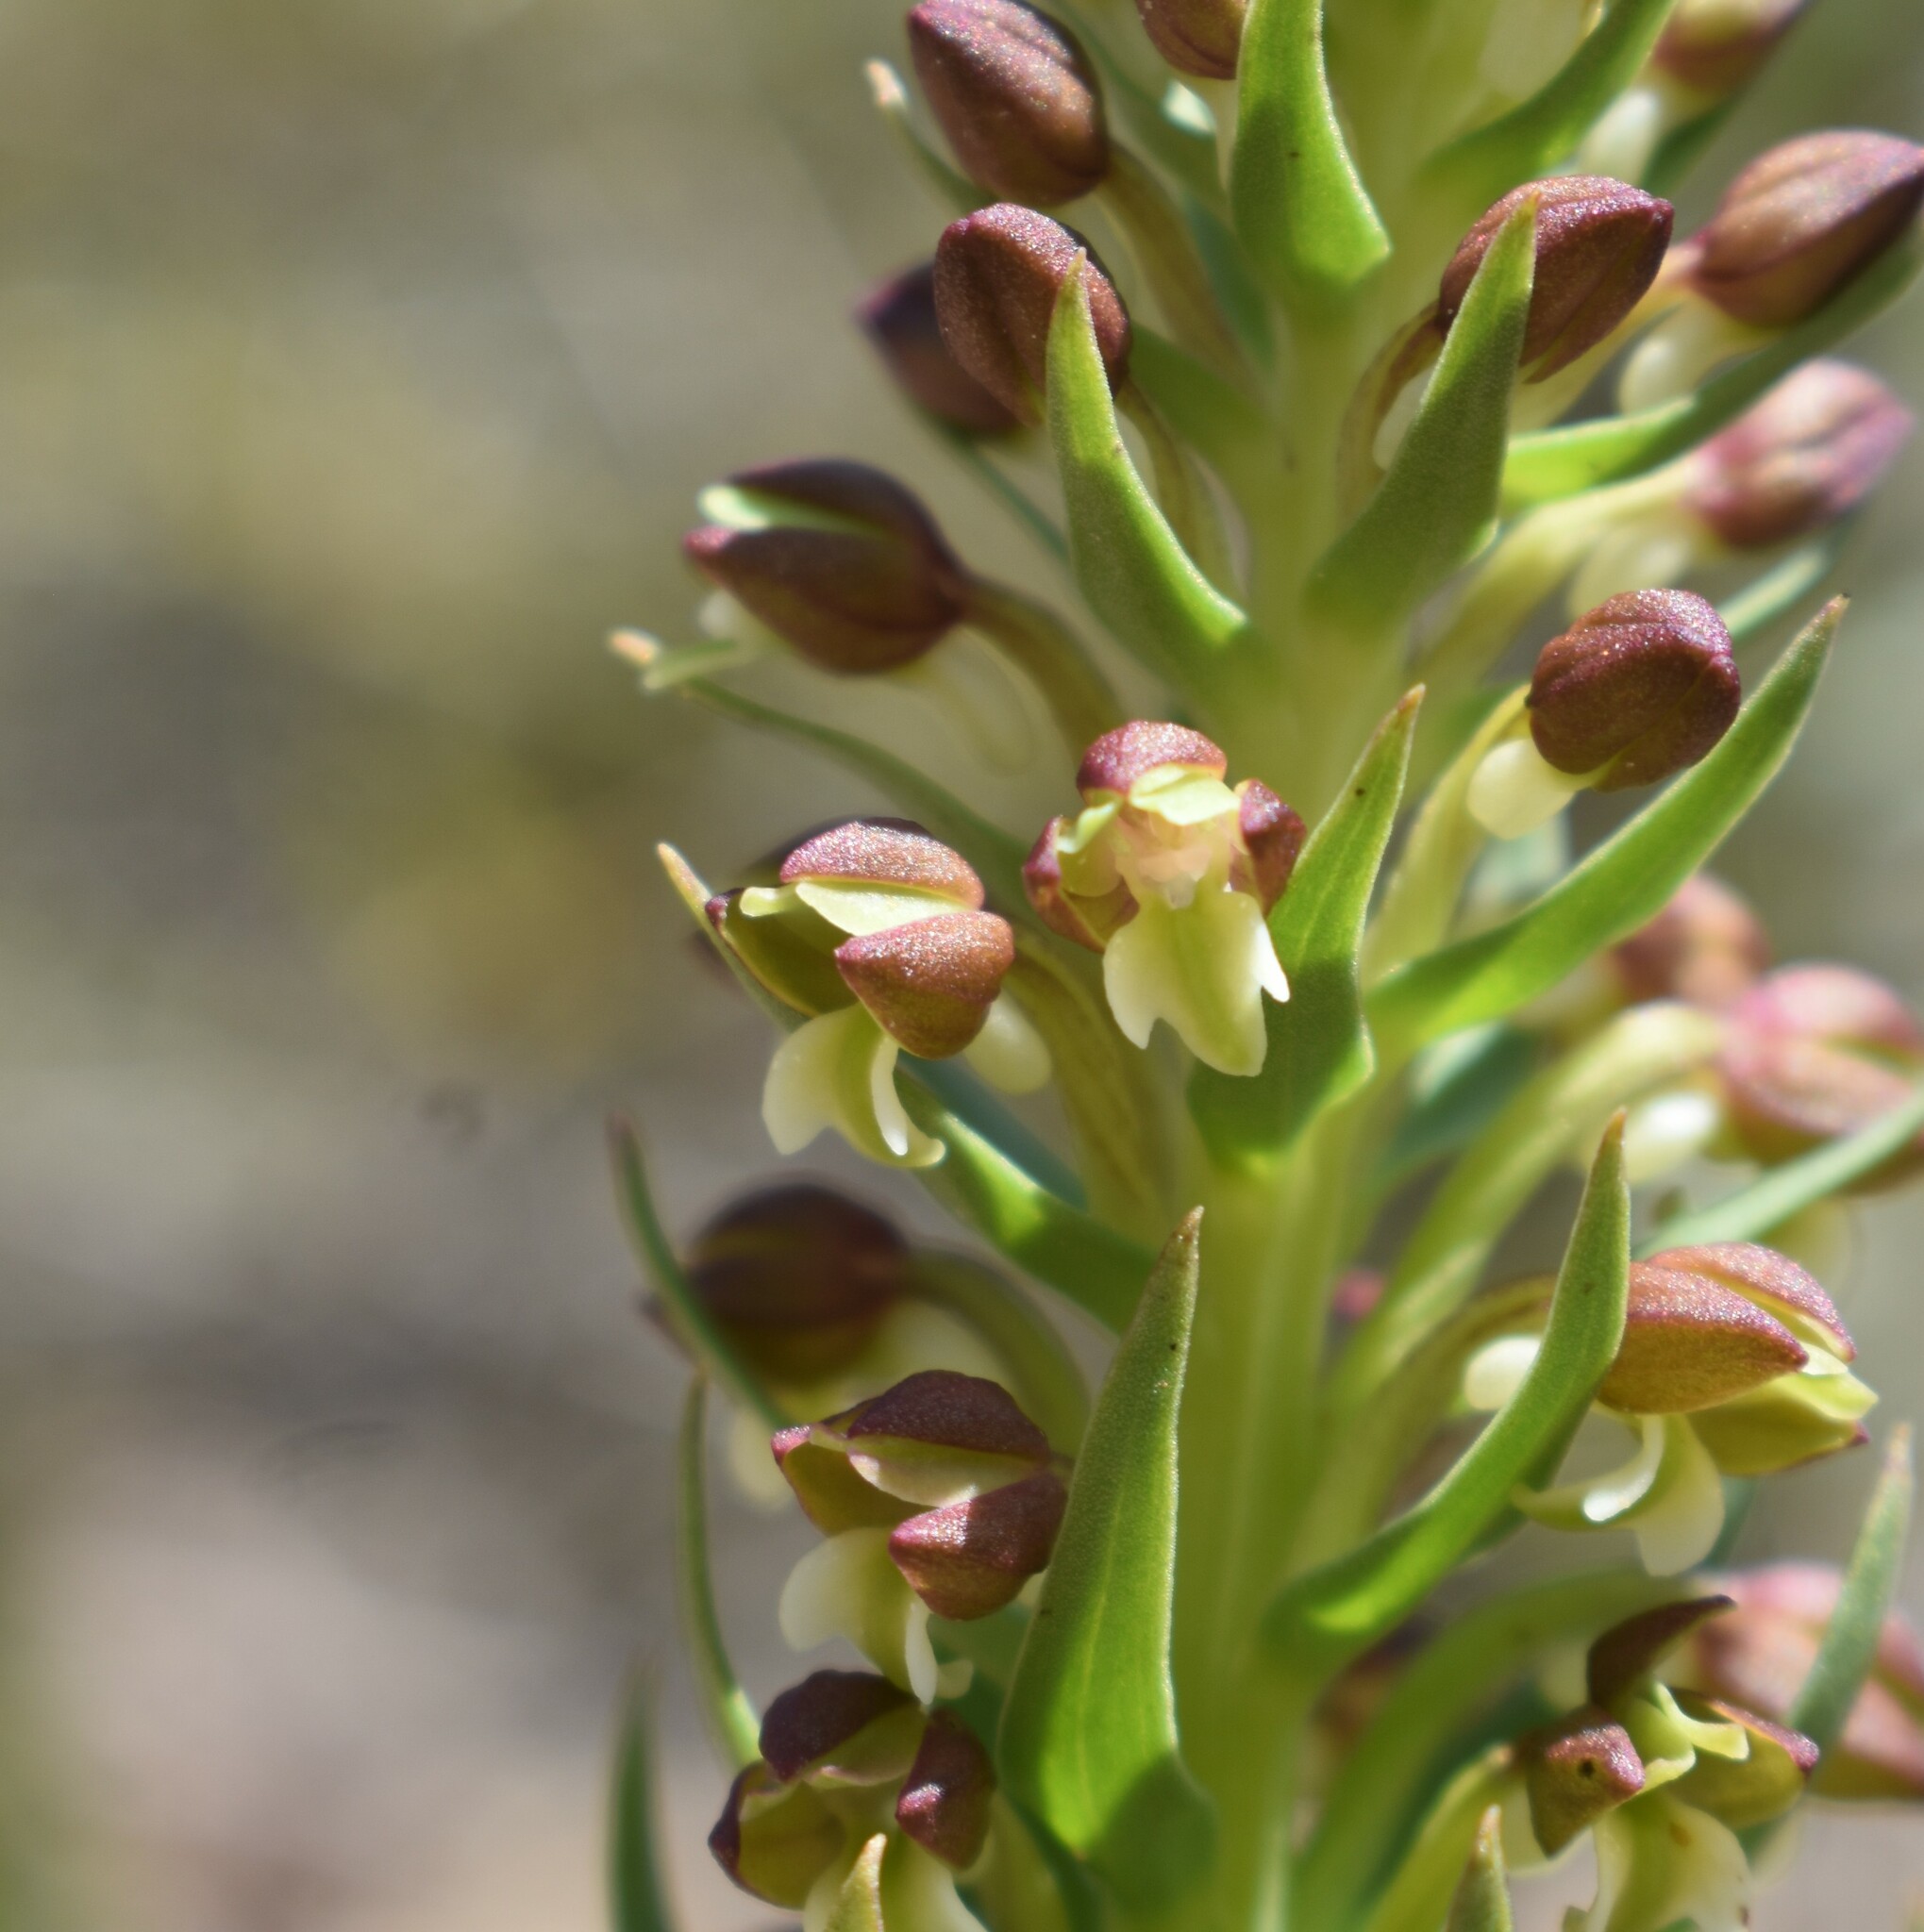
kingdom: Plantae
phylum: Tracheophyta
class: Liliopsida
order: Asparagales
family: Orchidaceae
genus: Brachycorythis
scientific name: Brachycorythis mac-owaniana
